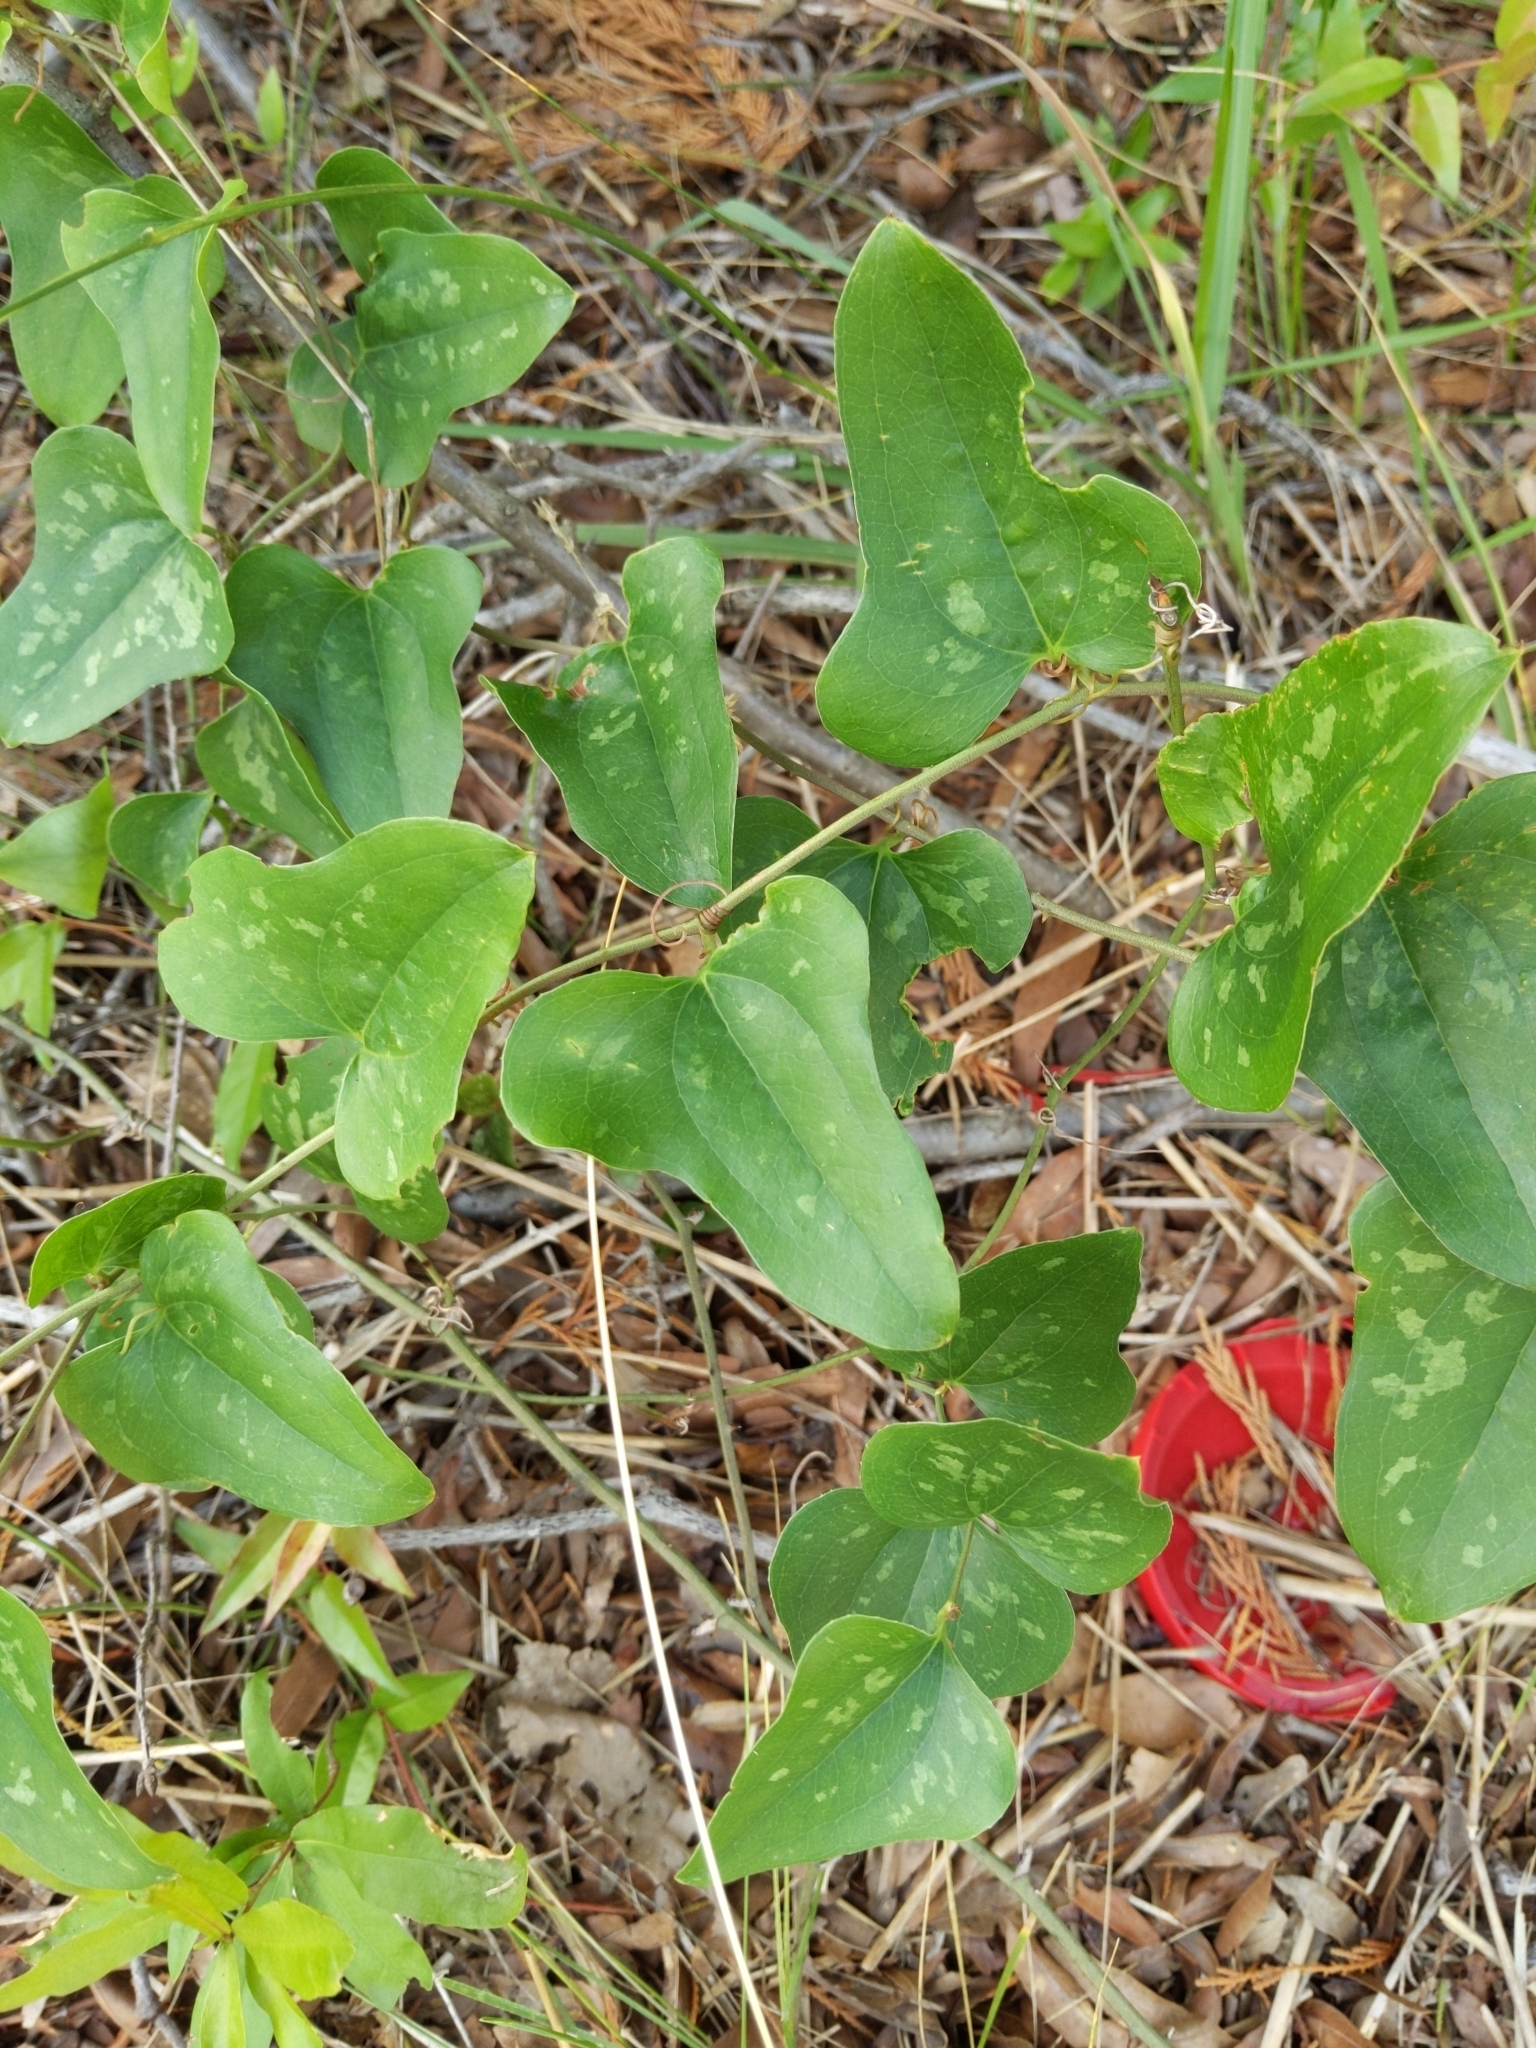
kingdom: Plantae
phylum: Tracheophyta
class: Liliopsida
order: Liliales
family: Smilacaceae
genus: Smilax
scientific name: Smilax bona-nox
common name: Catbrier
